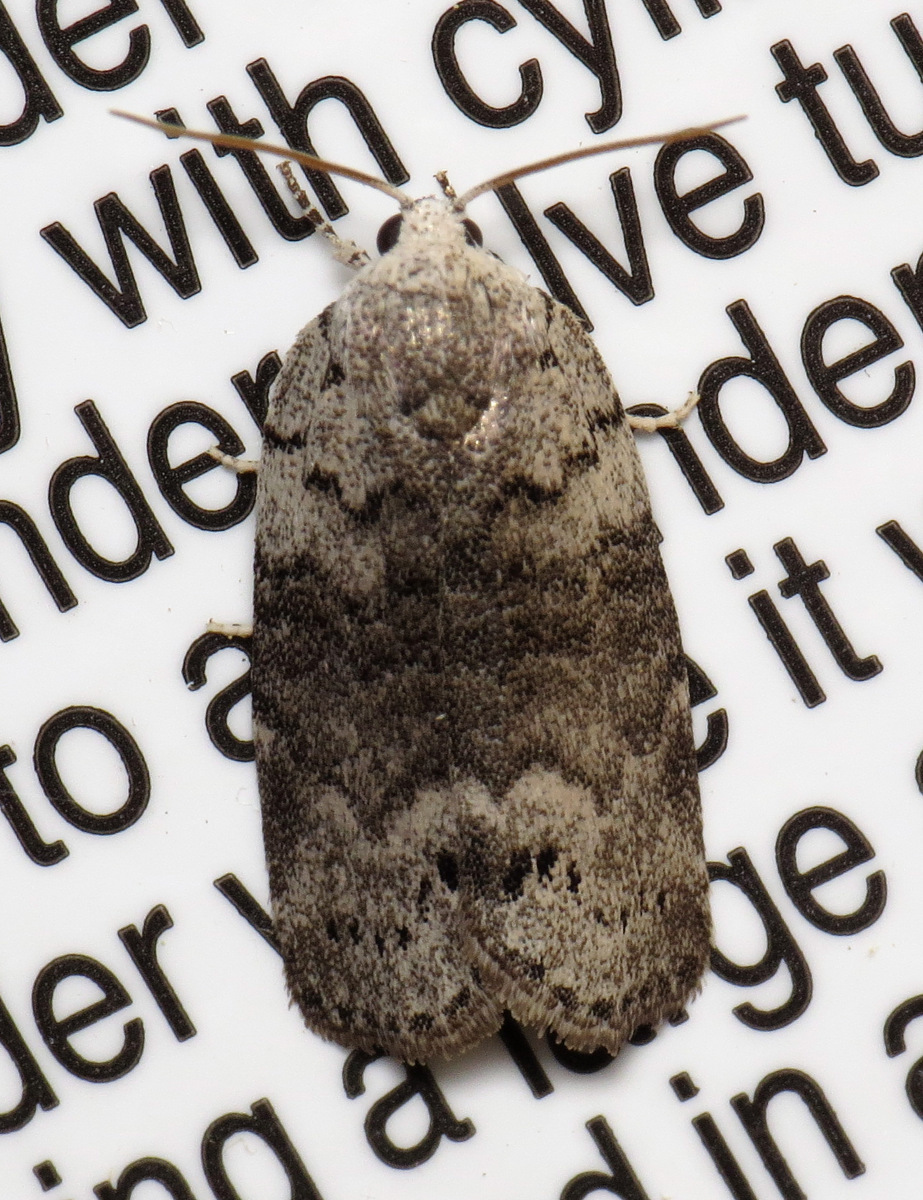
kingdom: Animalia
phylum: Arthropoda
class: Insecta
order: Lepidoptera
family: Noctuidae
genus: Polygrammate
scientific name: Polygrammate
